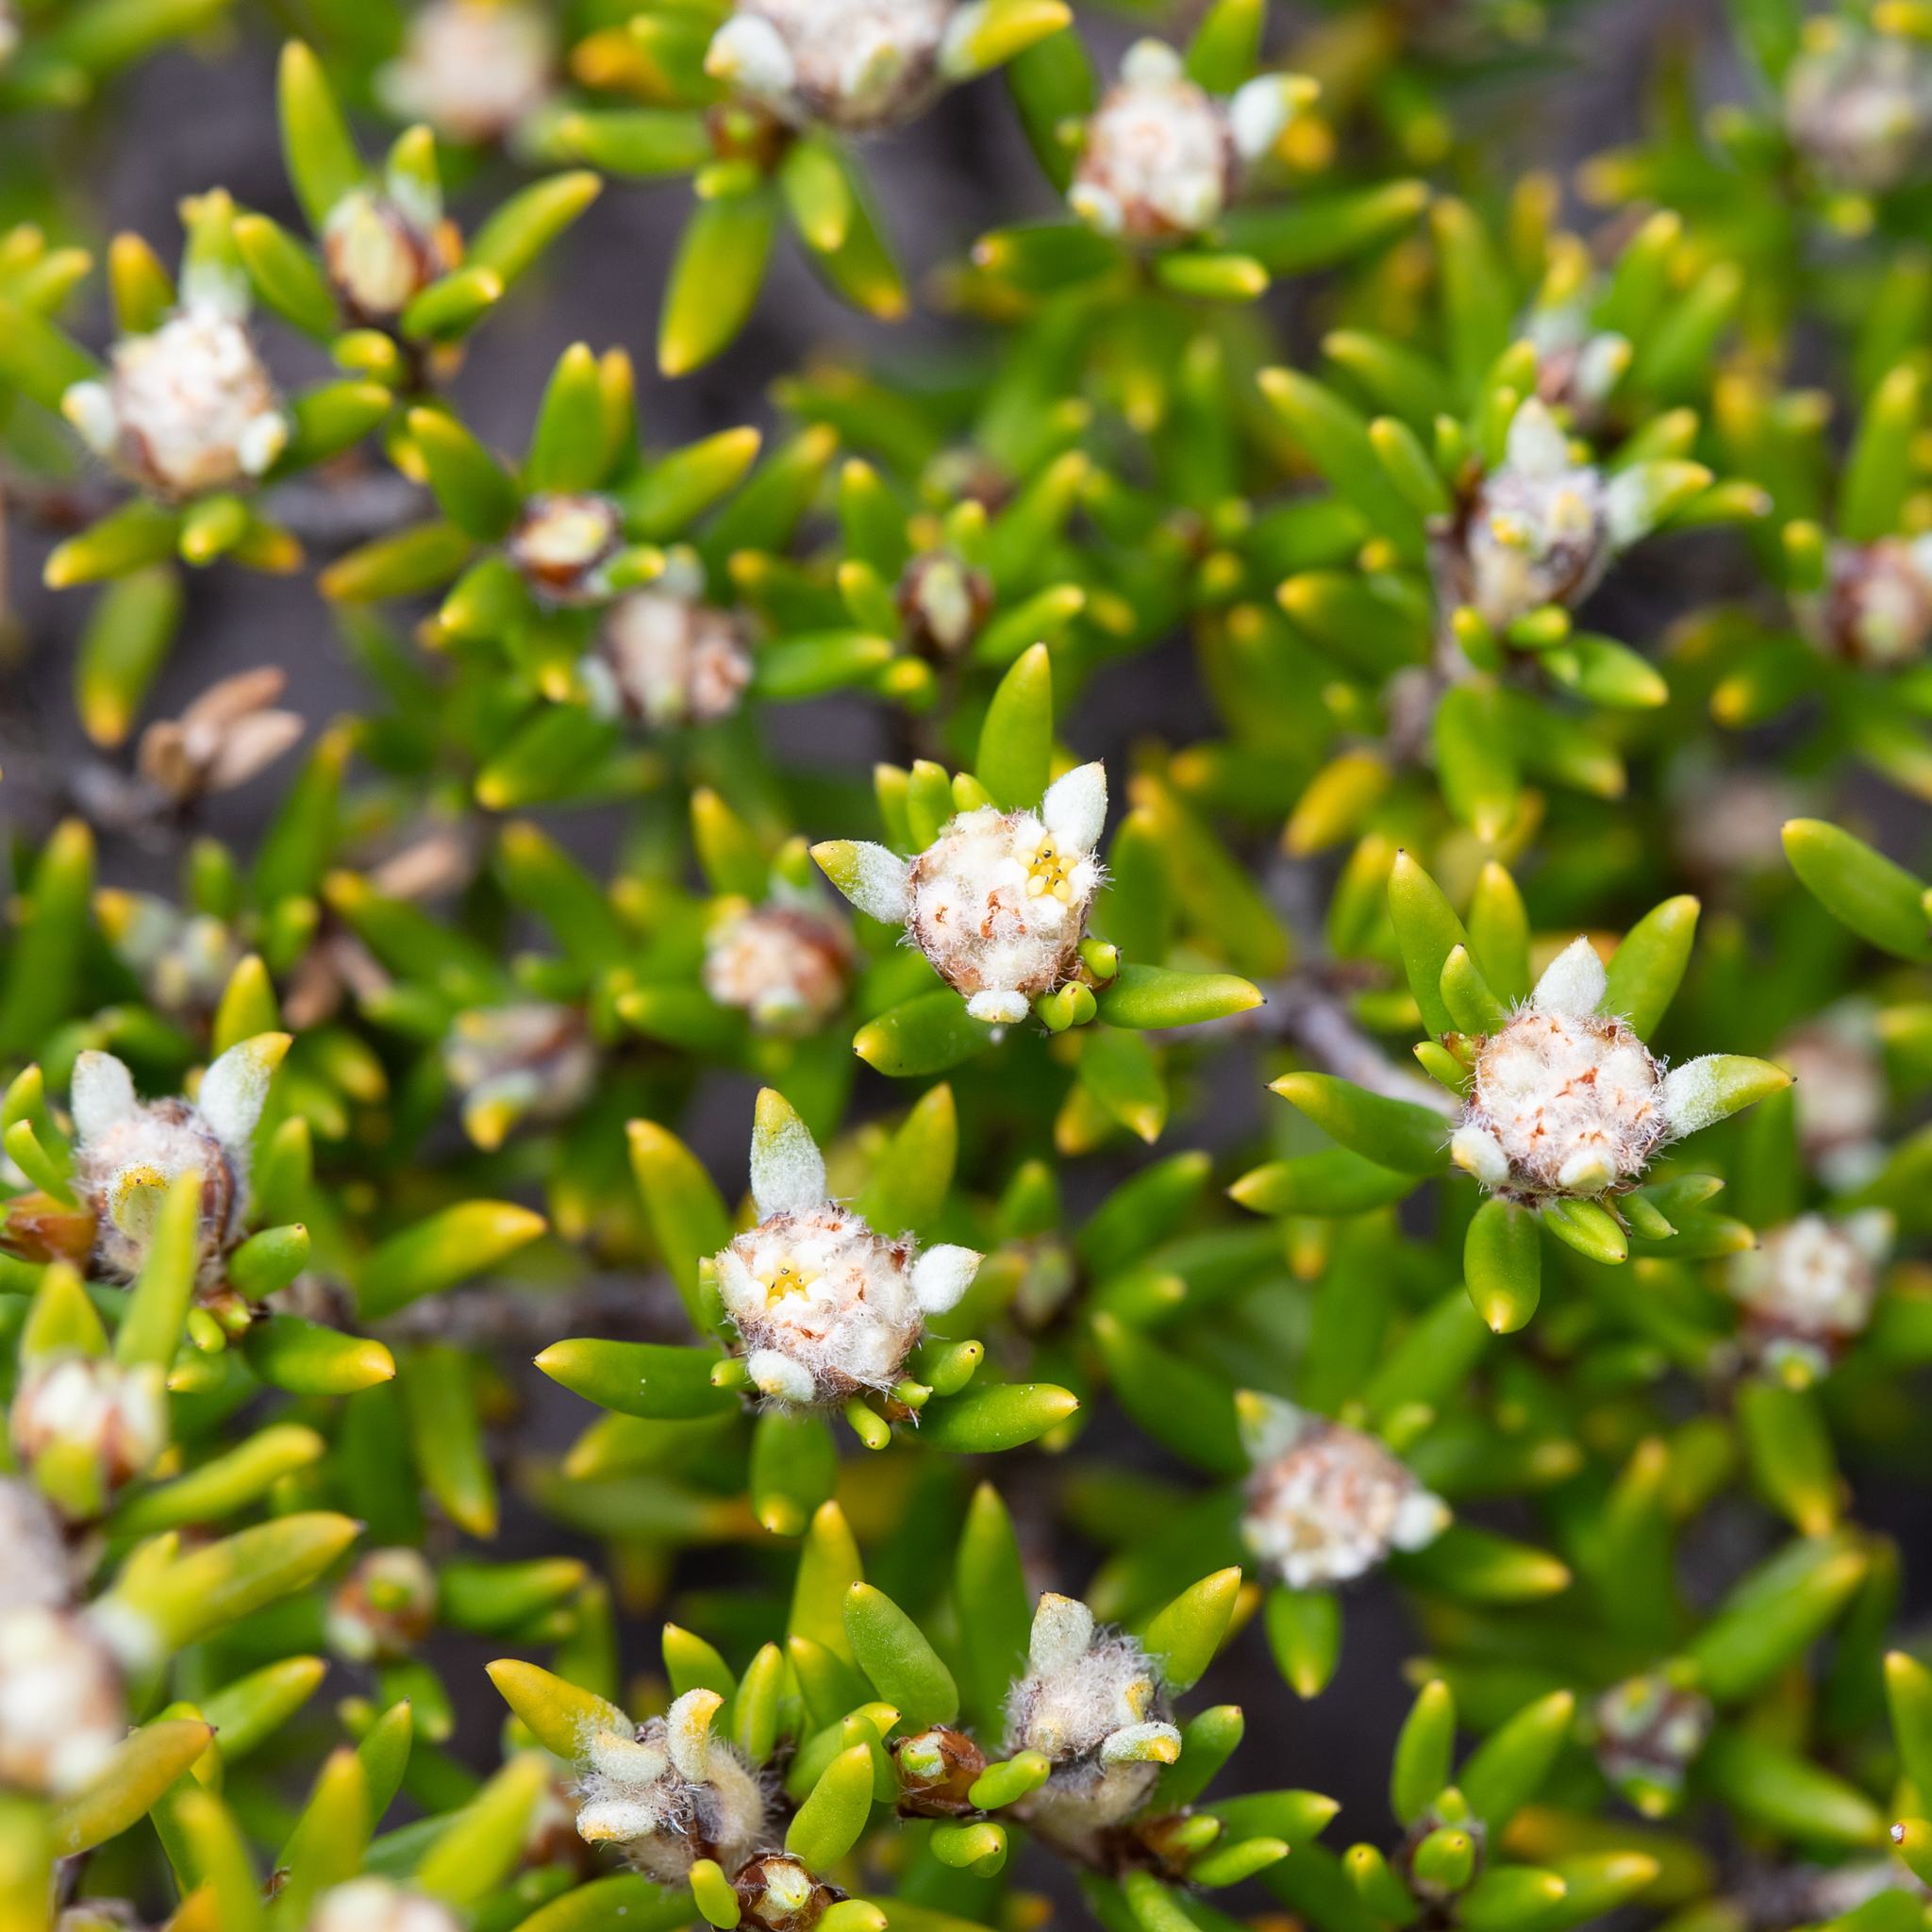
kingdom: Plantae
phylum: Tracheophyta
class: Magnoliopsida
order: Rosales
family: Rhamnaceae
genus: Spyridium
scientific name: Spyridium phylicoides
